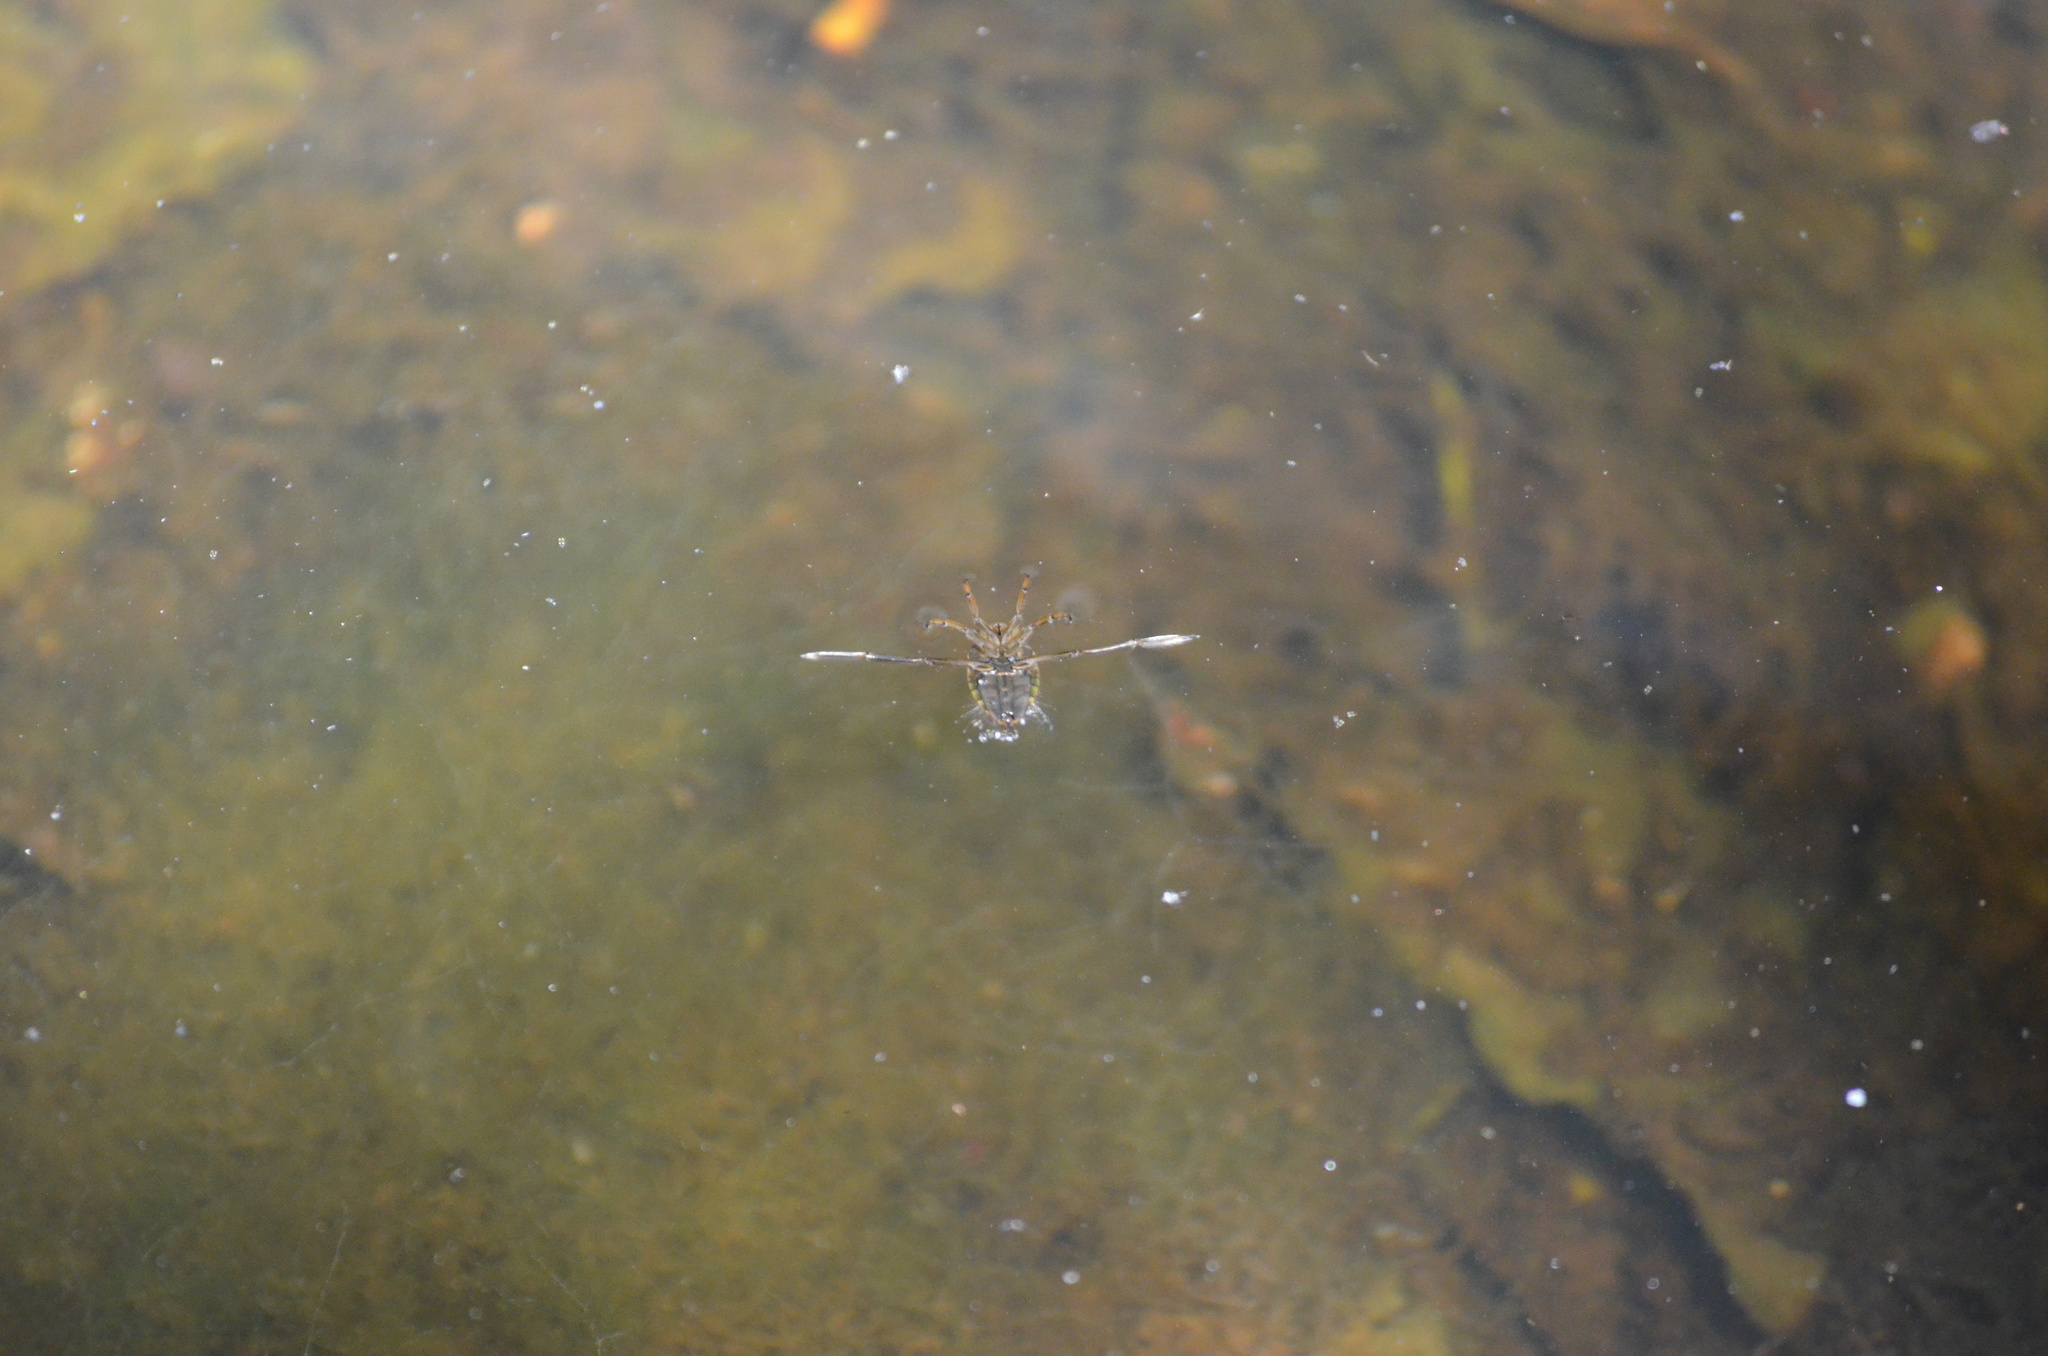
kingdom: Animalia
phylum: Arthropoda
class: Insecta
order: Hemiptera
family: Notonectidae
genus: Notonecta
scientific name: Notonecta
